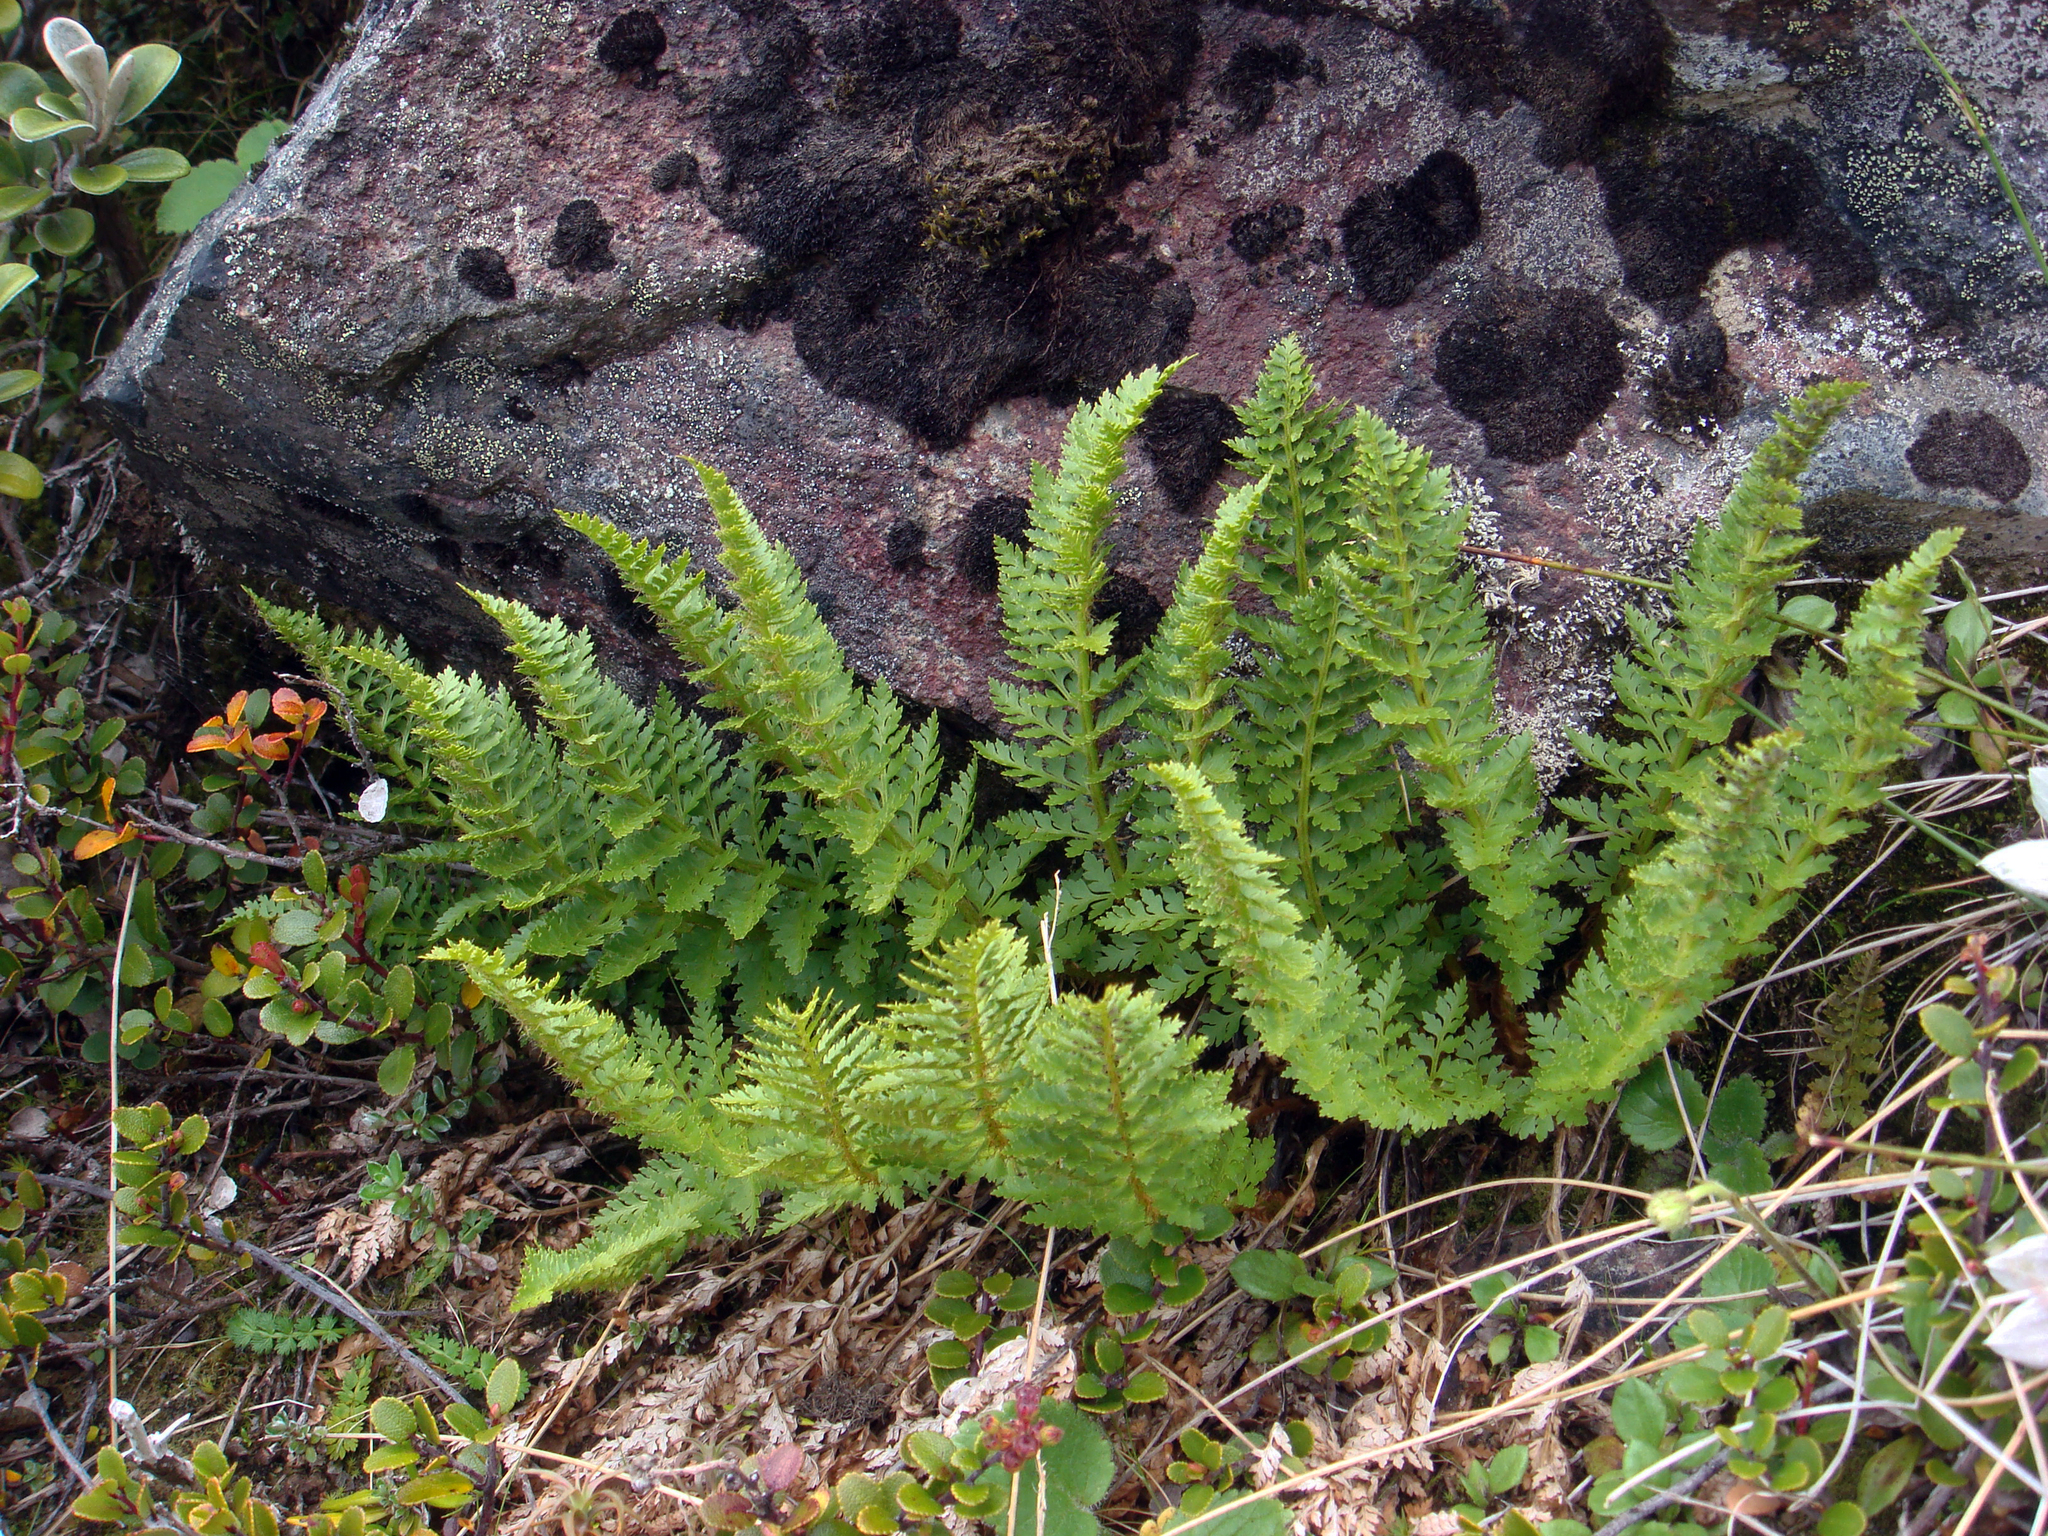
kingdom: Plantae
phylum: Tracheophyta
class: Polypodiopsida
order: Polypodiales
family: Dryopteridaceae
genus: Polystichum
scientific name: Polystichum cystostegia
